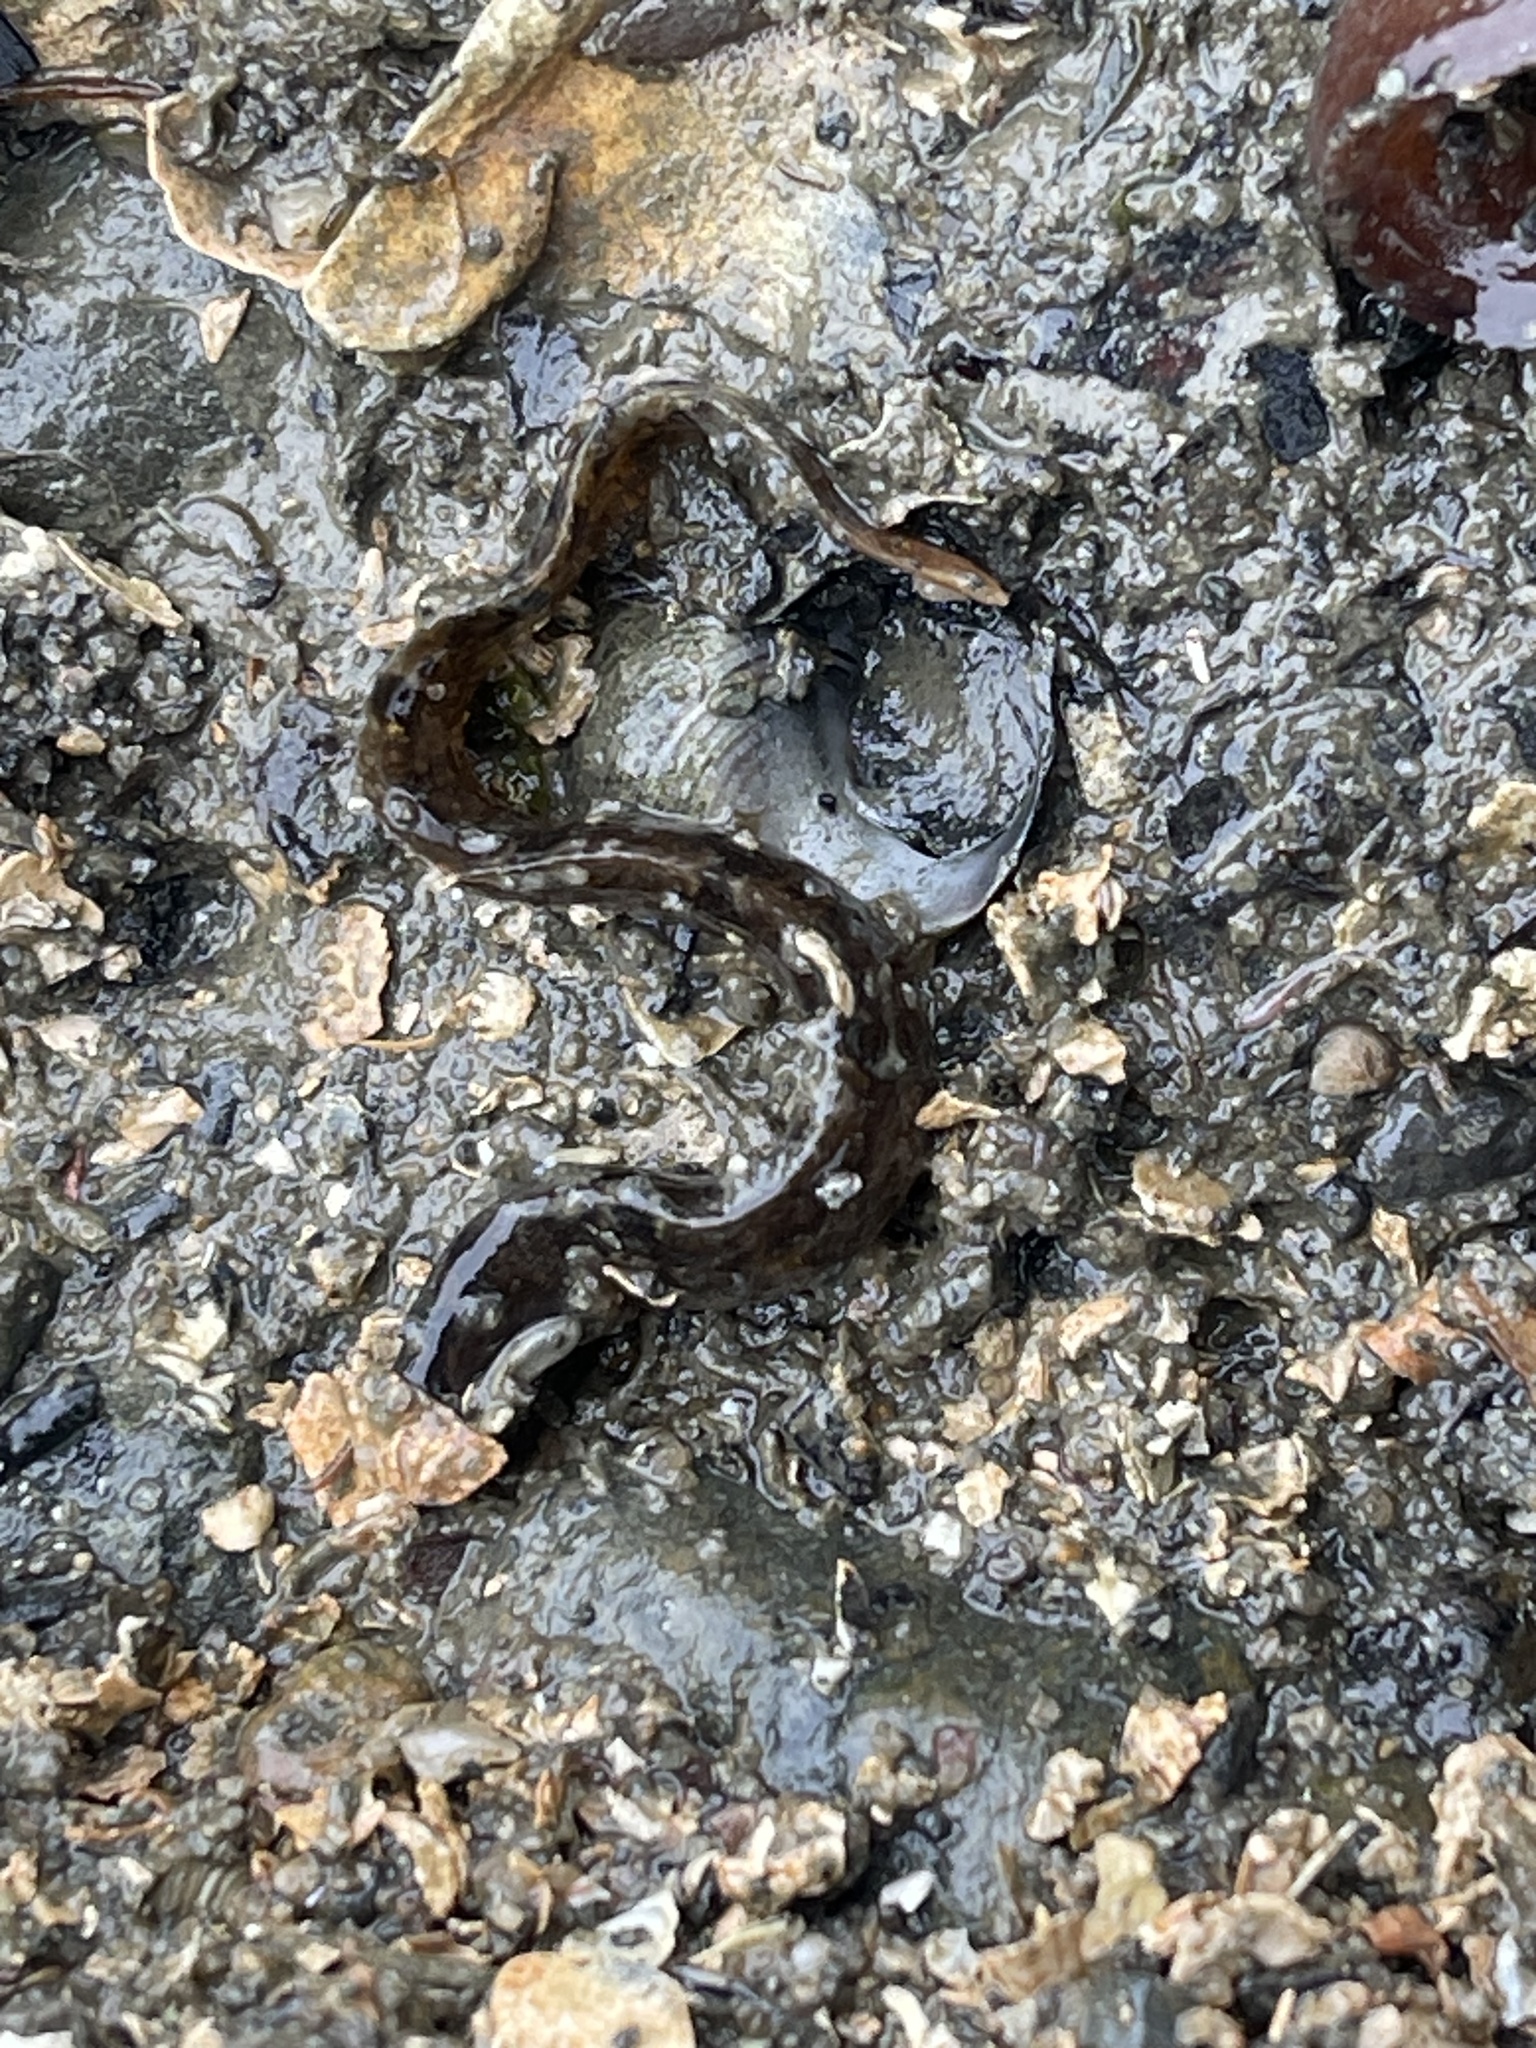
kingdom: Animalia
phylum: Chordata
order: Perciformes
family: Pholidae
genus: Pholis
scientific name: Pholis gunnellus
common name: Butterfish
